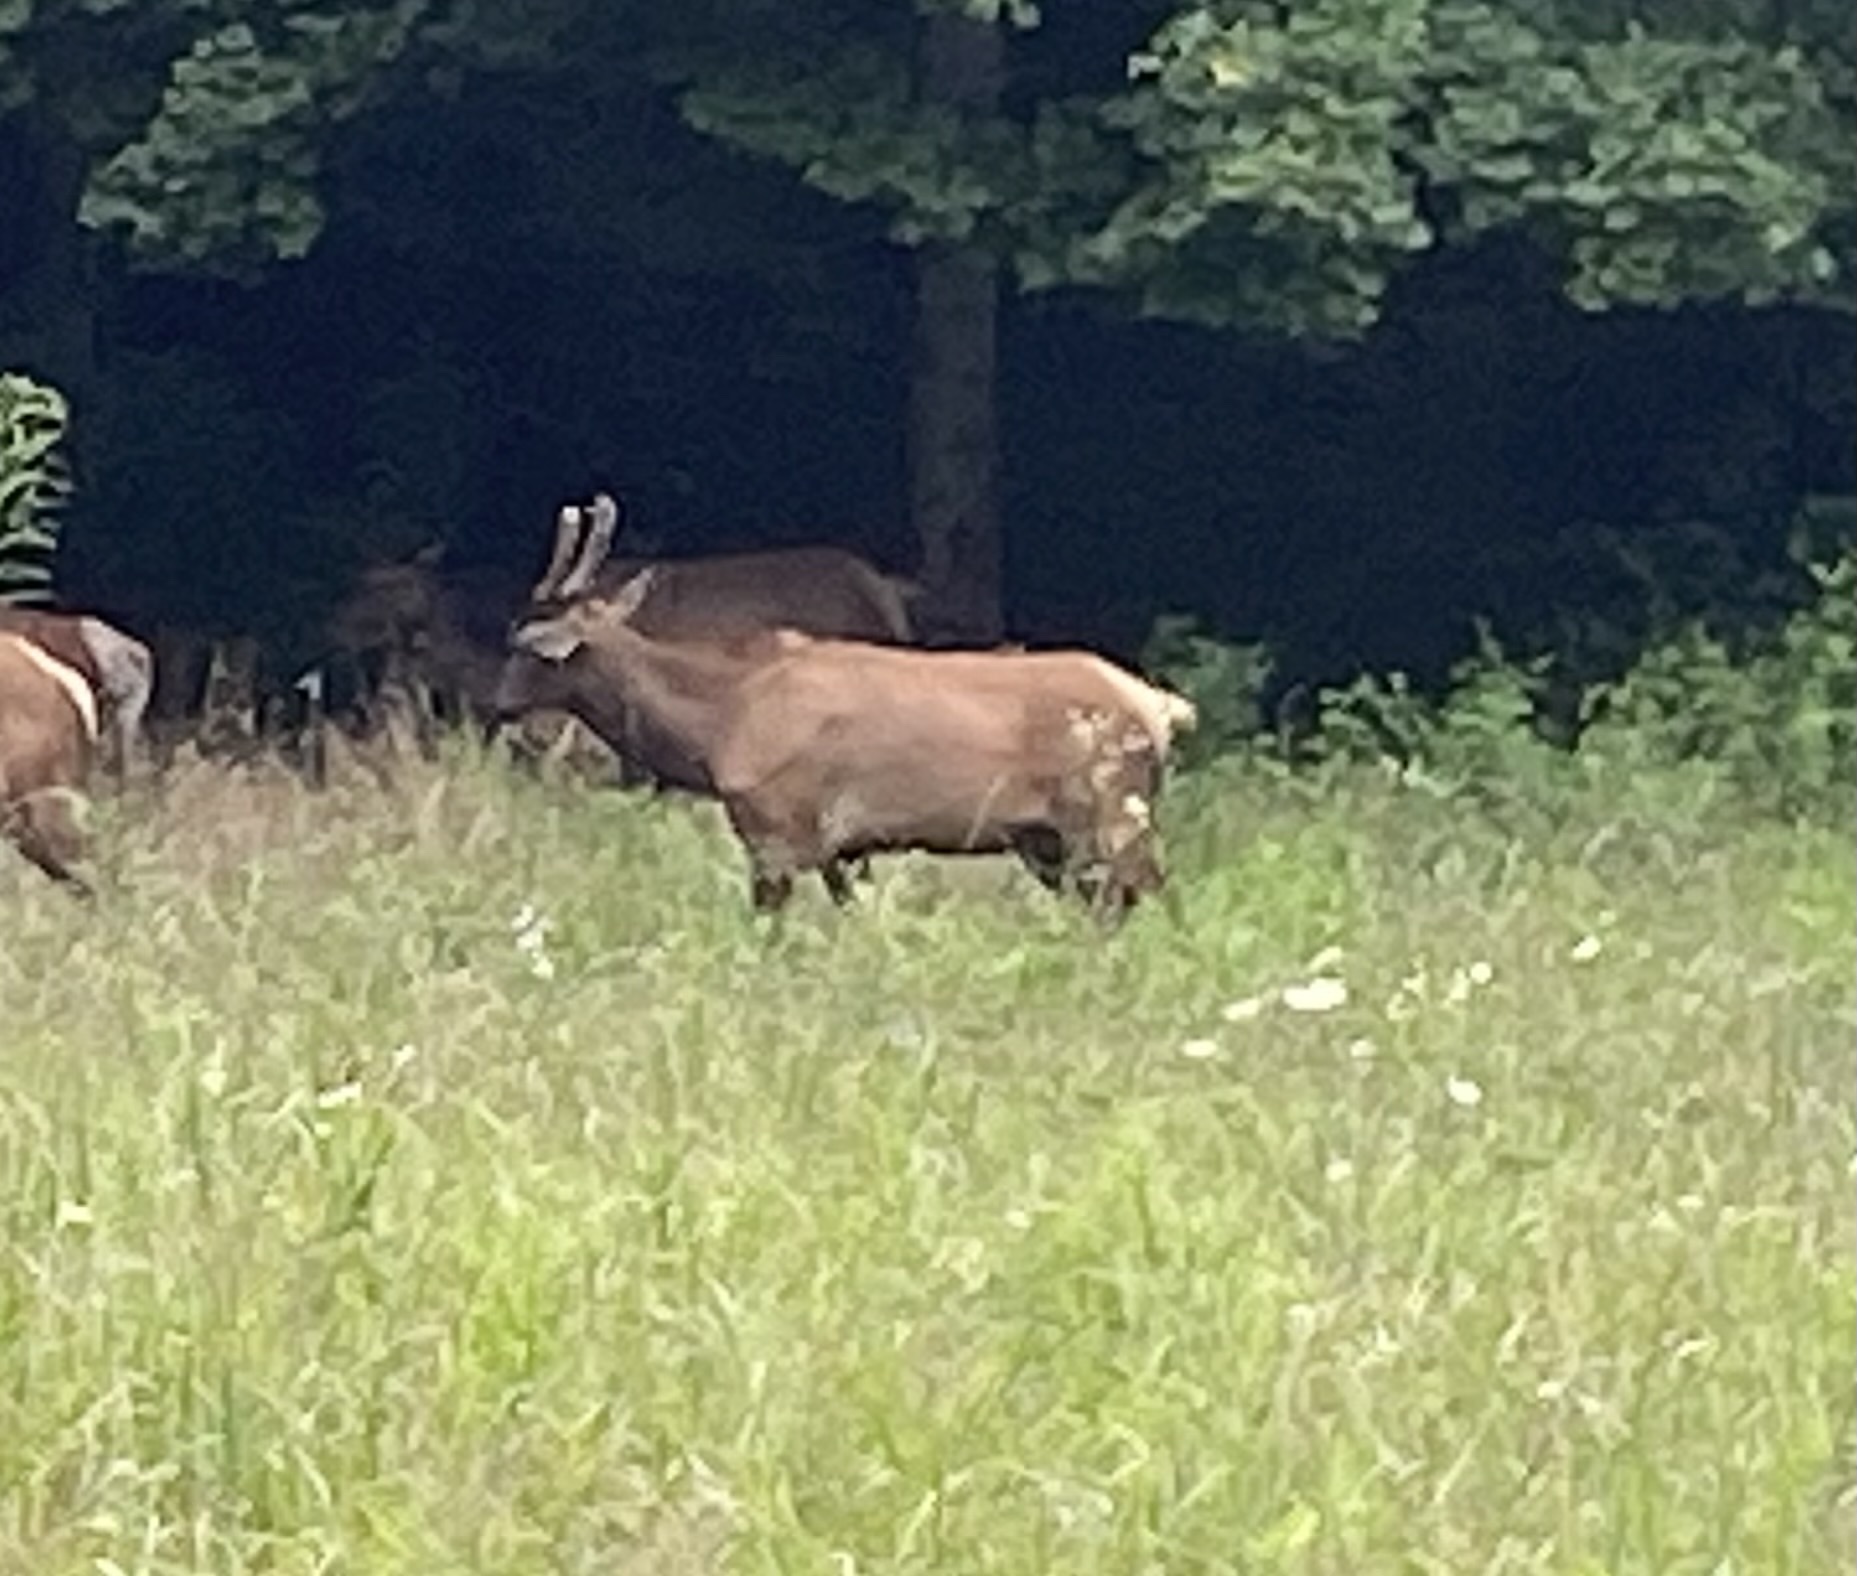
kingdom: Animalia
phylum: Chordata
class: Mammalia
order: Artiodactyla
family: Cervidae
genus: Cervus
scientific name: Cervus elaphus
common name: Red deer
